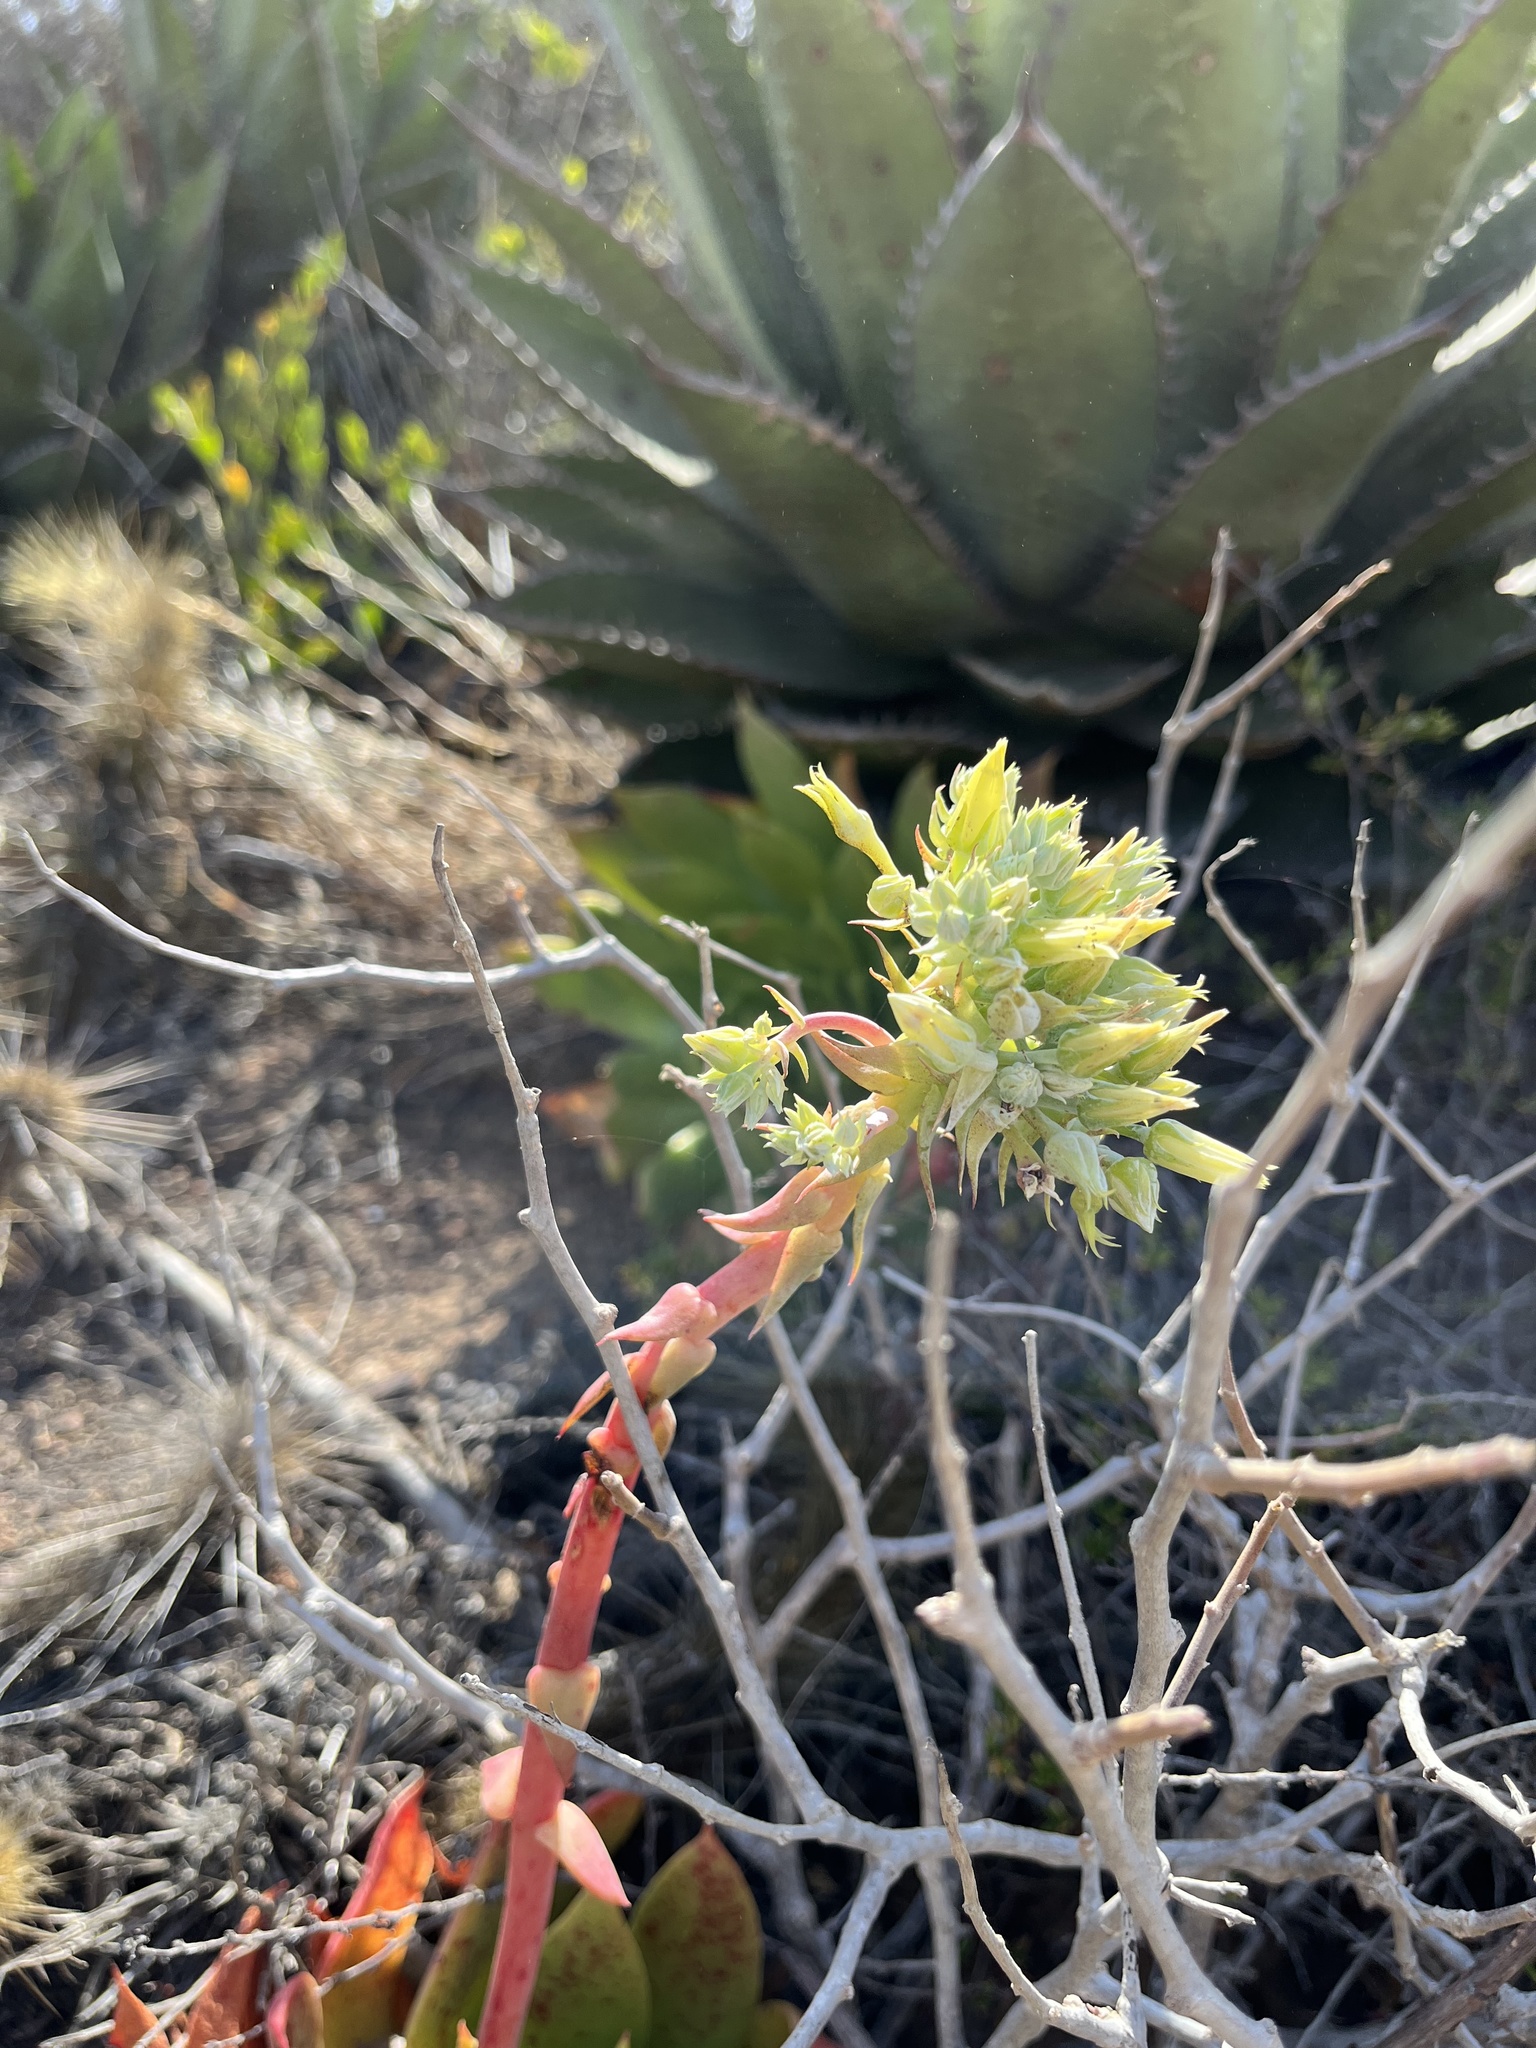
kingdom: Plantae
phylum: Tracheophyta
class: Magnoliopsida
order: Saxifragales
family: Crassulaceae
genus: Dudleya
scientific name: Dudleya brittonii
